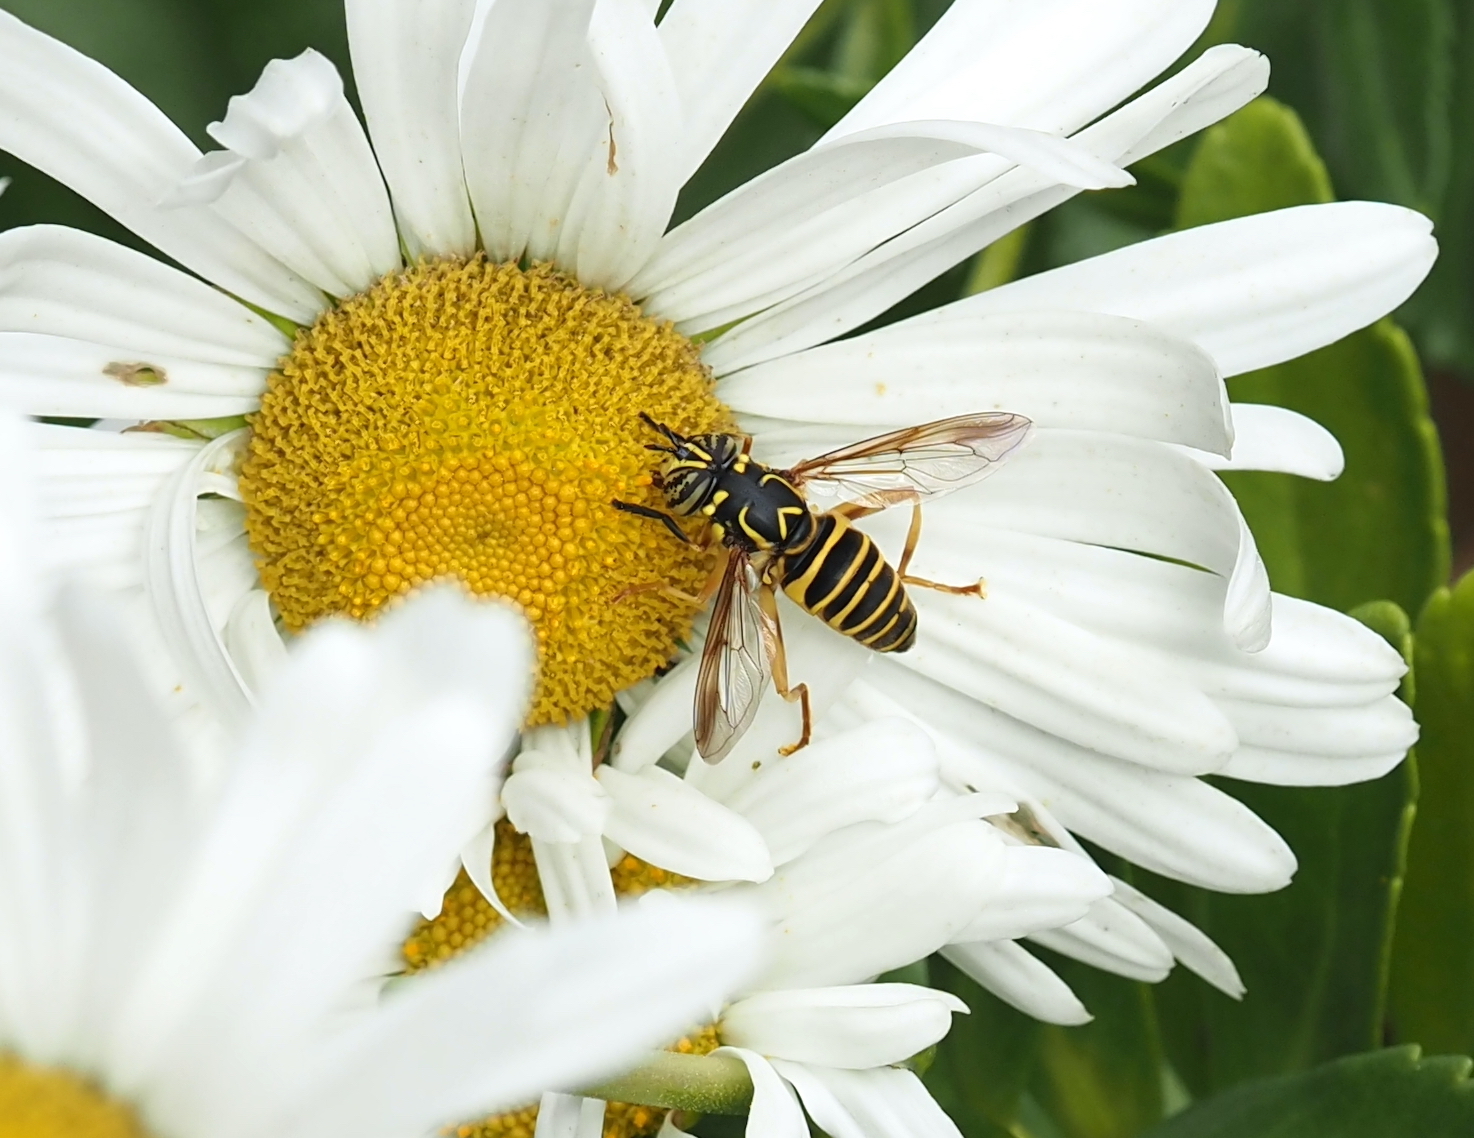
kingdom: Animalia
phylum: Arthropoda
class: Insecta
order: Diptera
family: Syrphidae
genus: Spilomyia
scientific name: Spilomyia longicornis
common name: Eastern hornet fly
